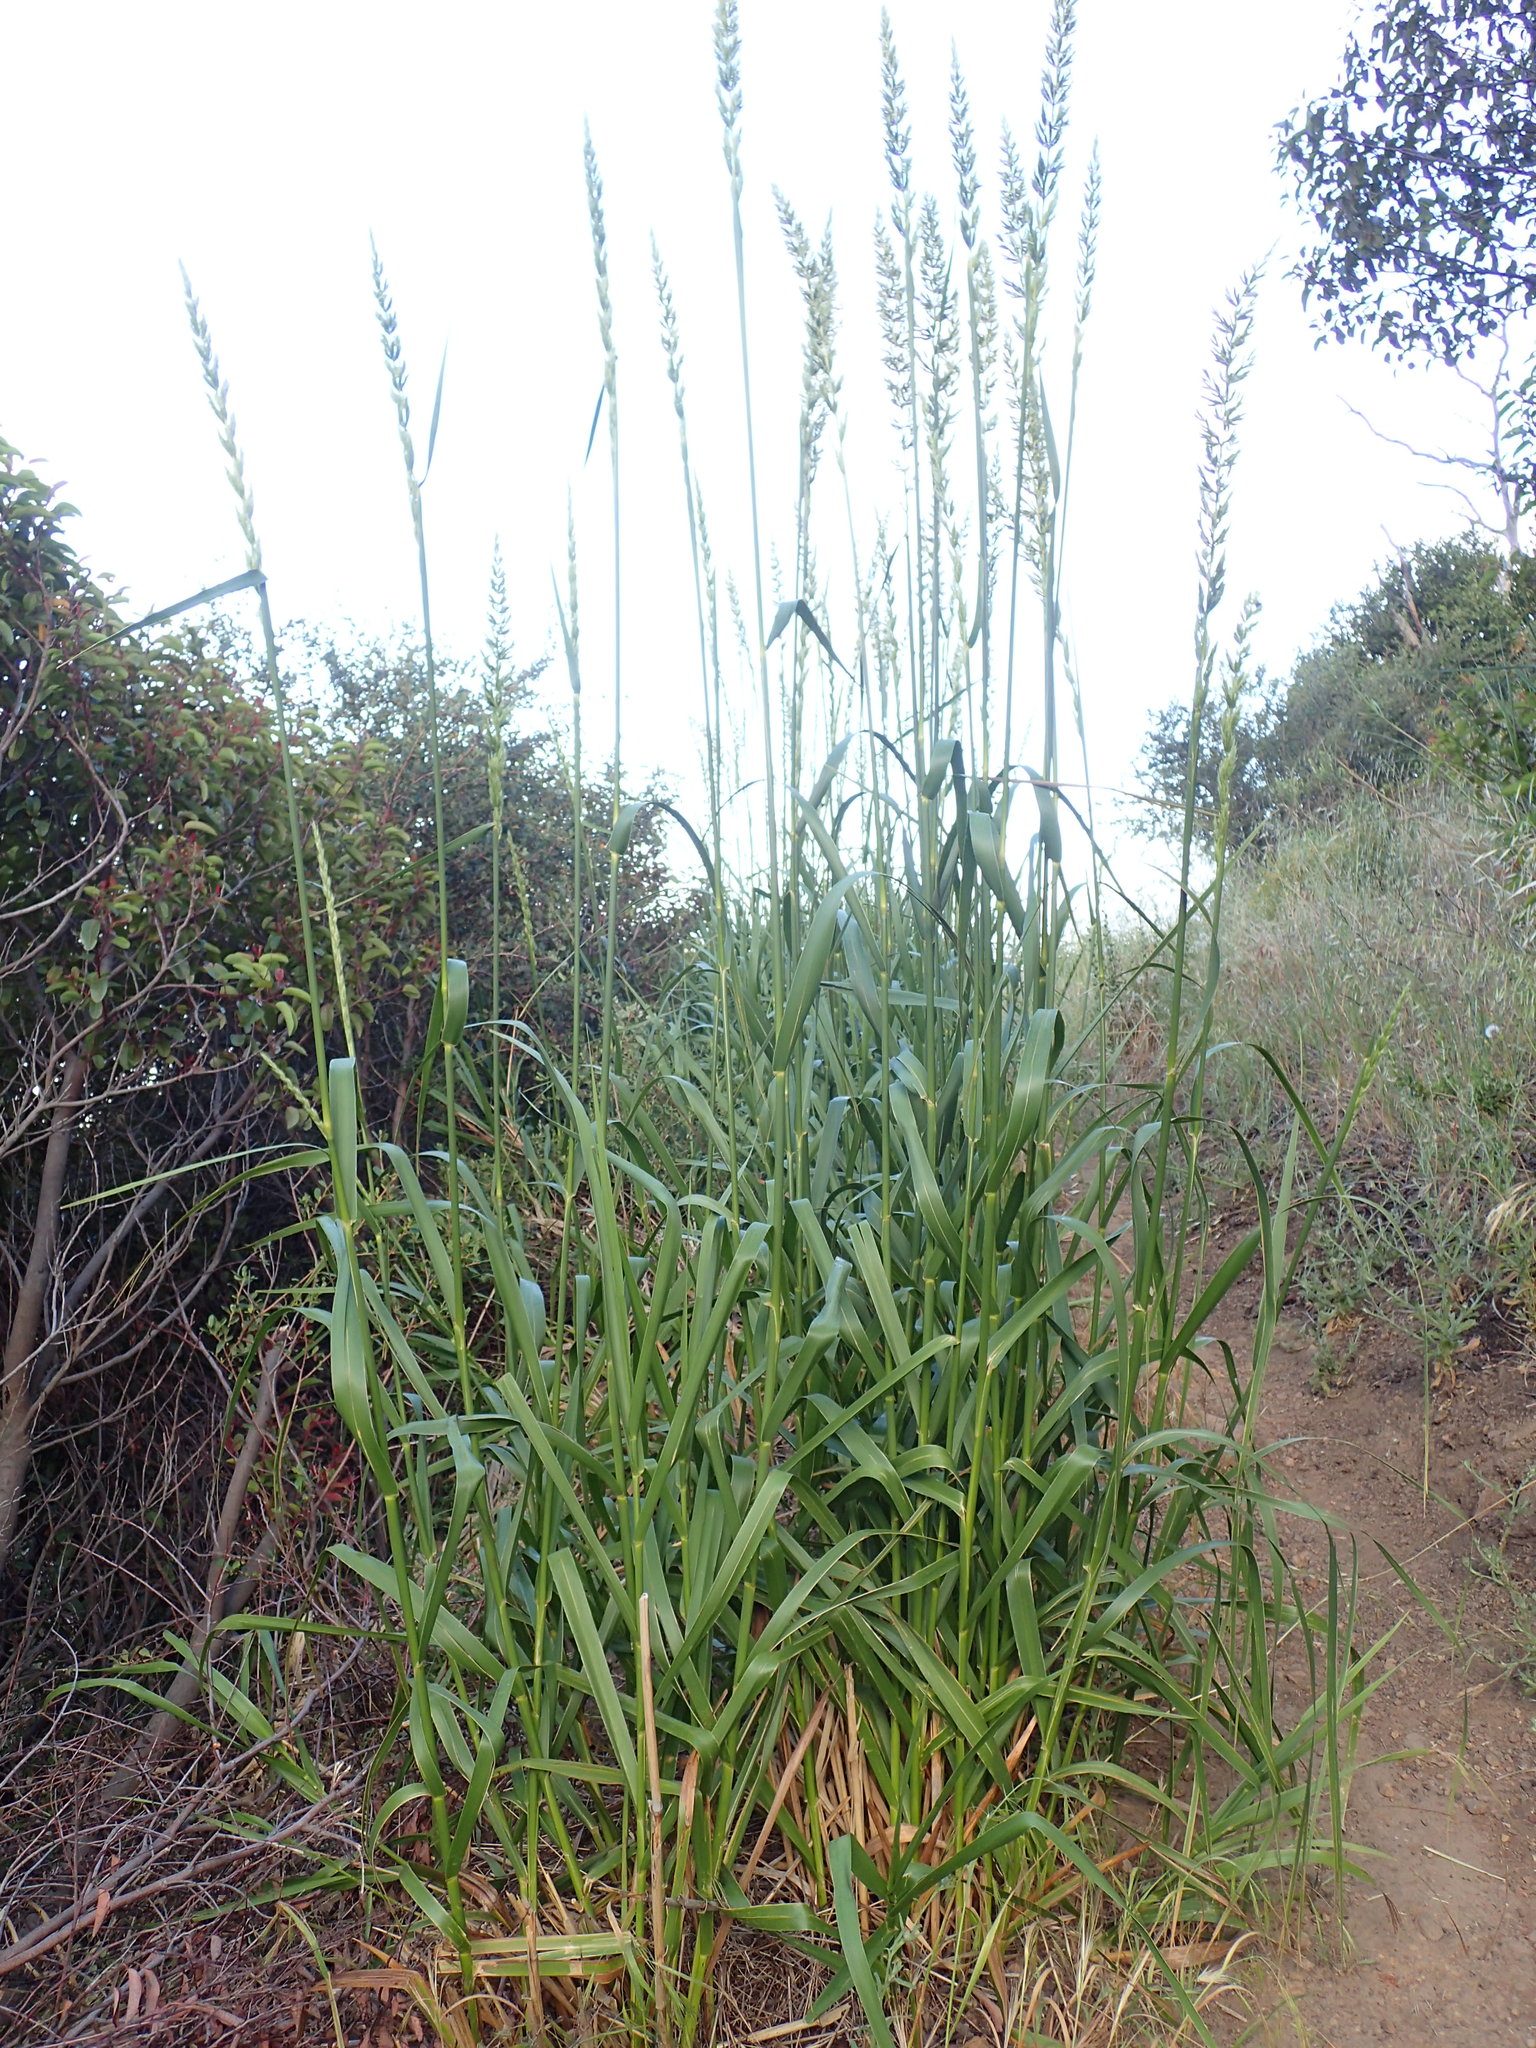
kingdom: Plantae
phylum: Tracheophyta
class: Liliopsida
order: Poales
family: Poaceae
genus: Leymus
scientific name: Leymus condensatus
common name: Giant wild rye
